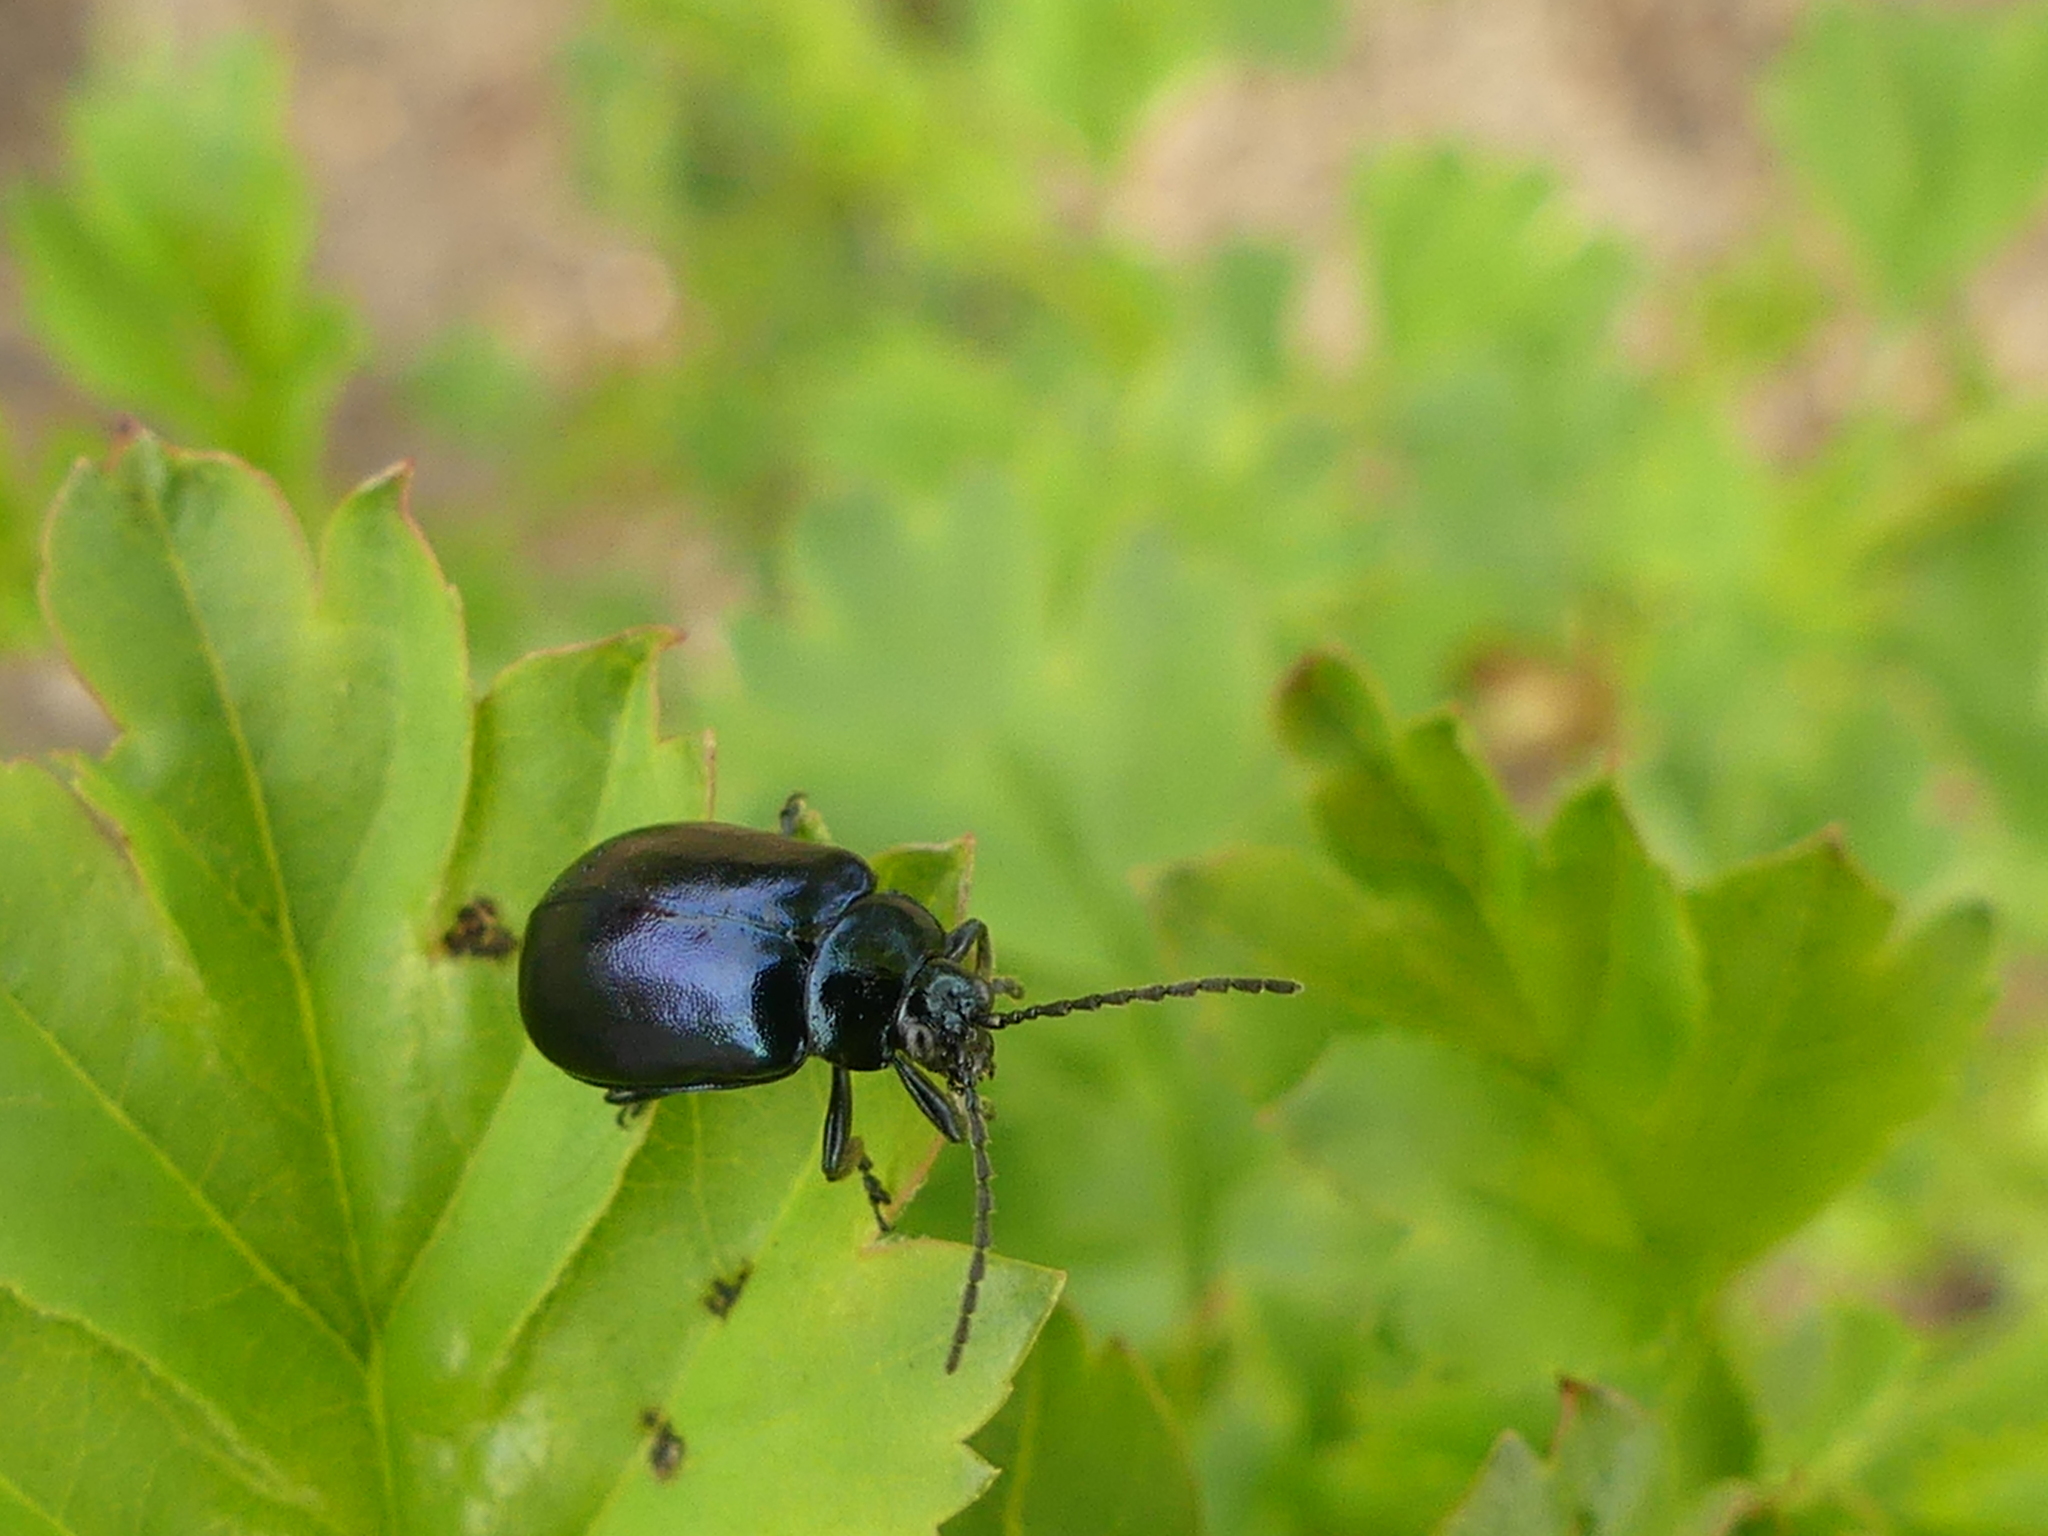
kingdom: Animalia
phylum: Arthropoda
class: Insecta
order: Coleoptera
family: Chrysomelidae
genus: Agelastica
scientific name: Agelastica alni
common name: Alder leaf beetle
